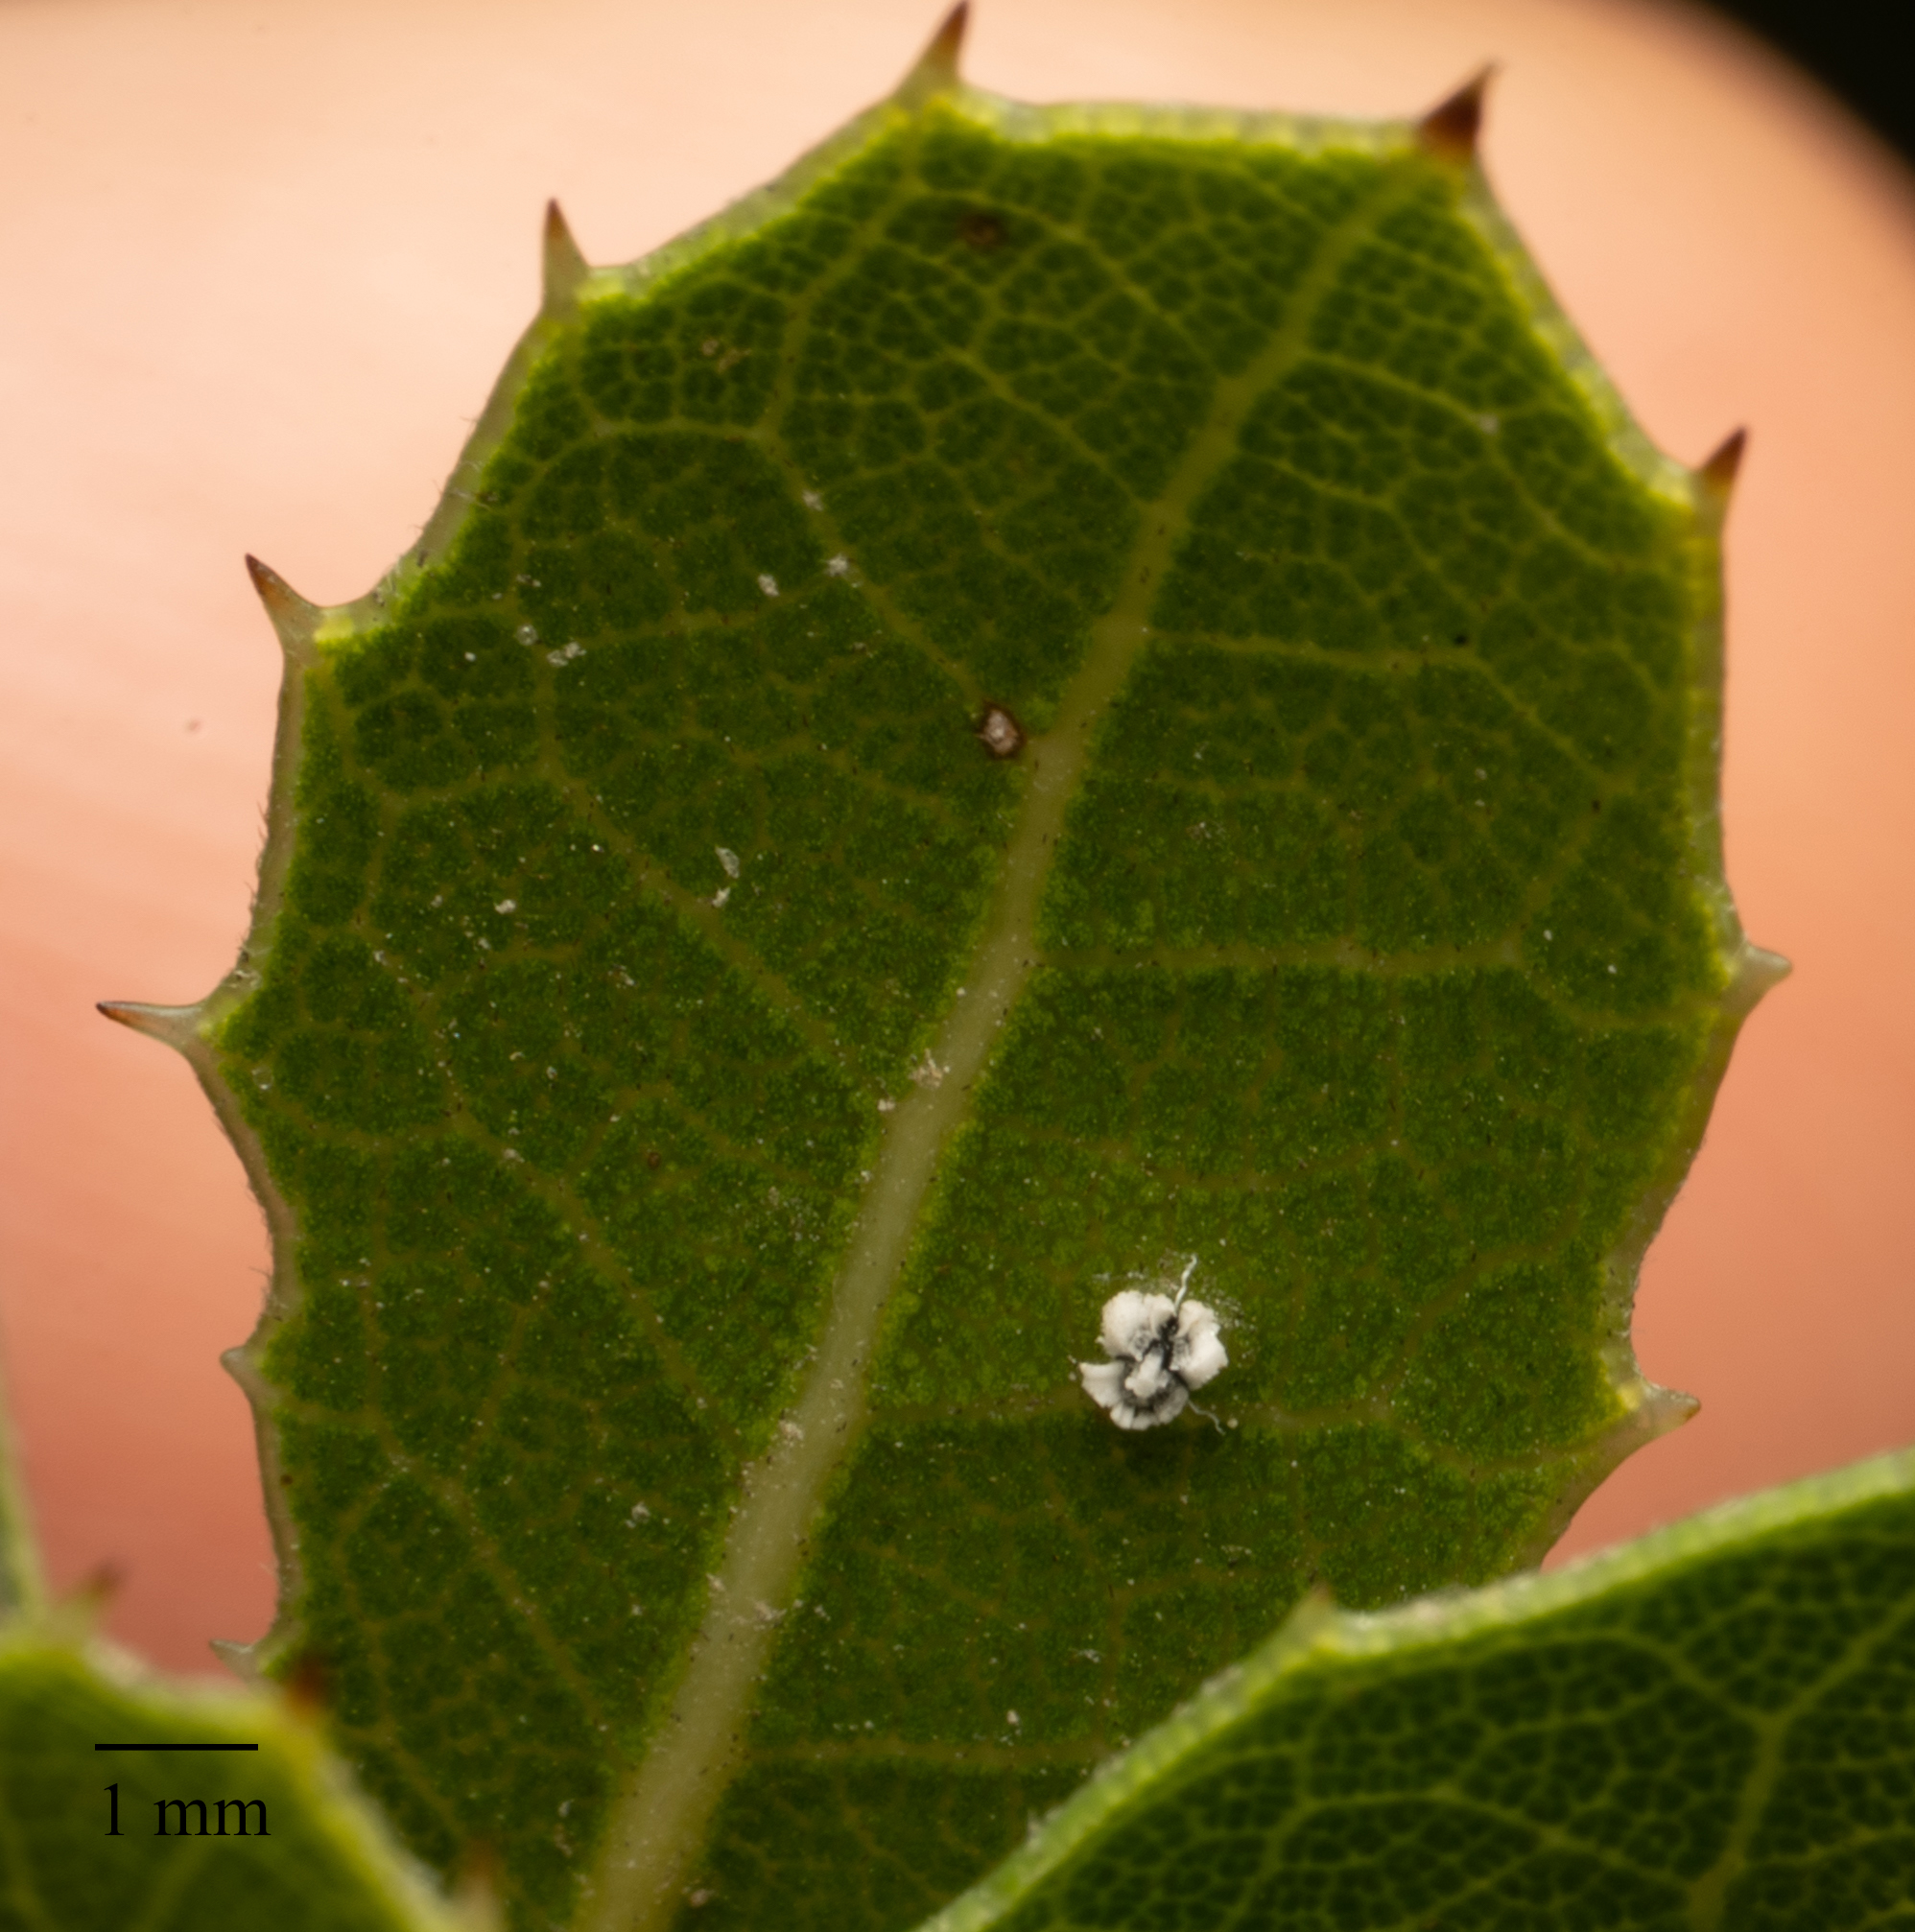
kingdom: Animalia
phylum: Arthropoda
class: Insecta
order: Hemiptera
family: Aleyrodidae
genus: Aleuroplatus
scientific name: Aleuroplatus coronata
